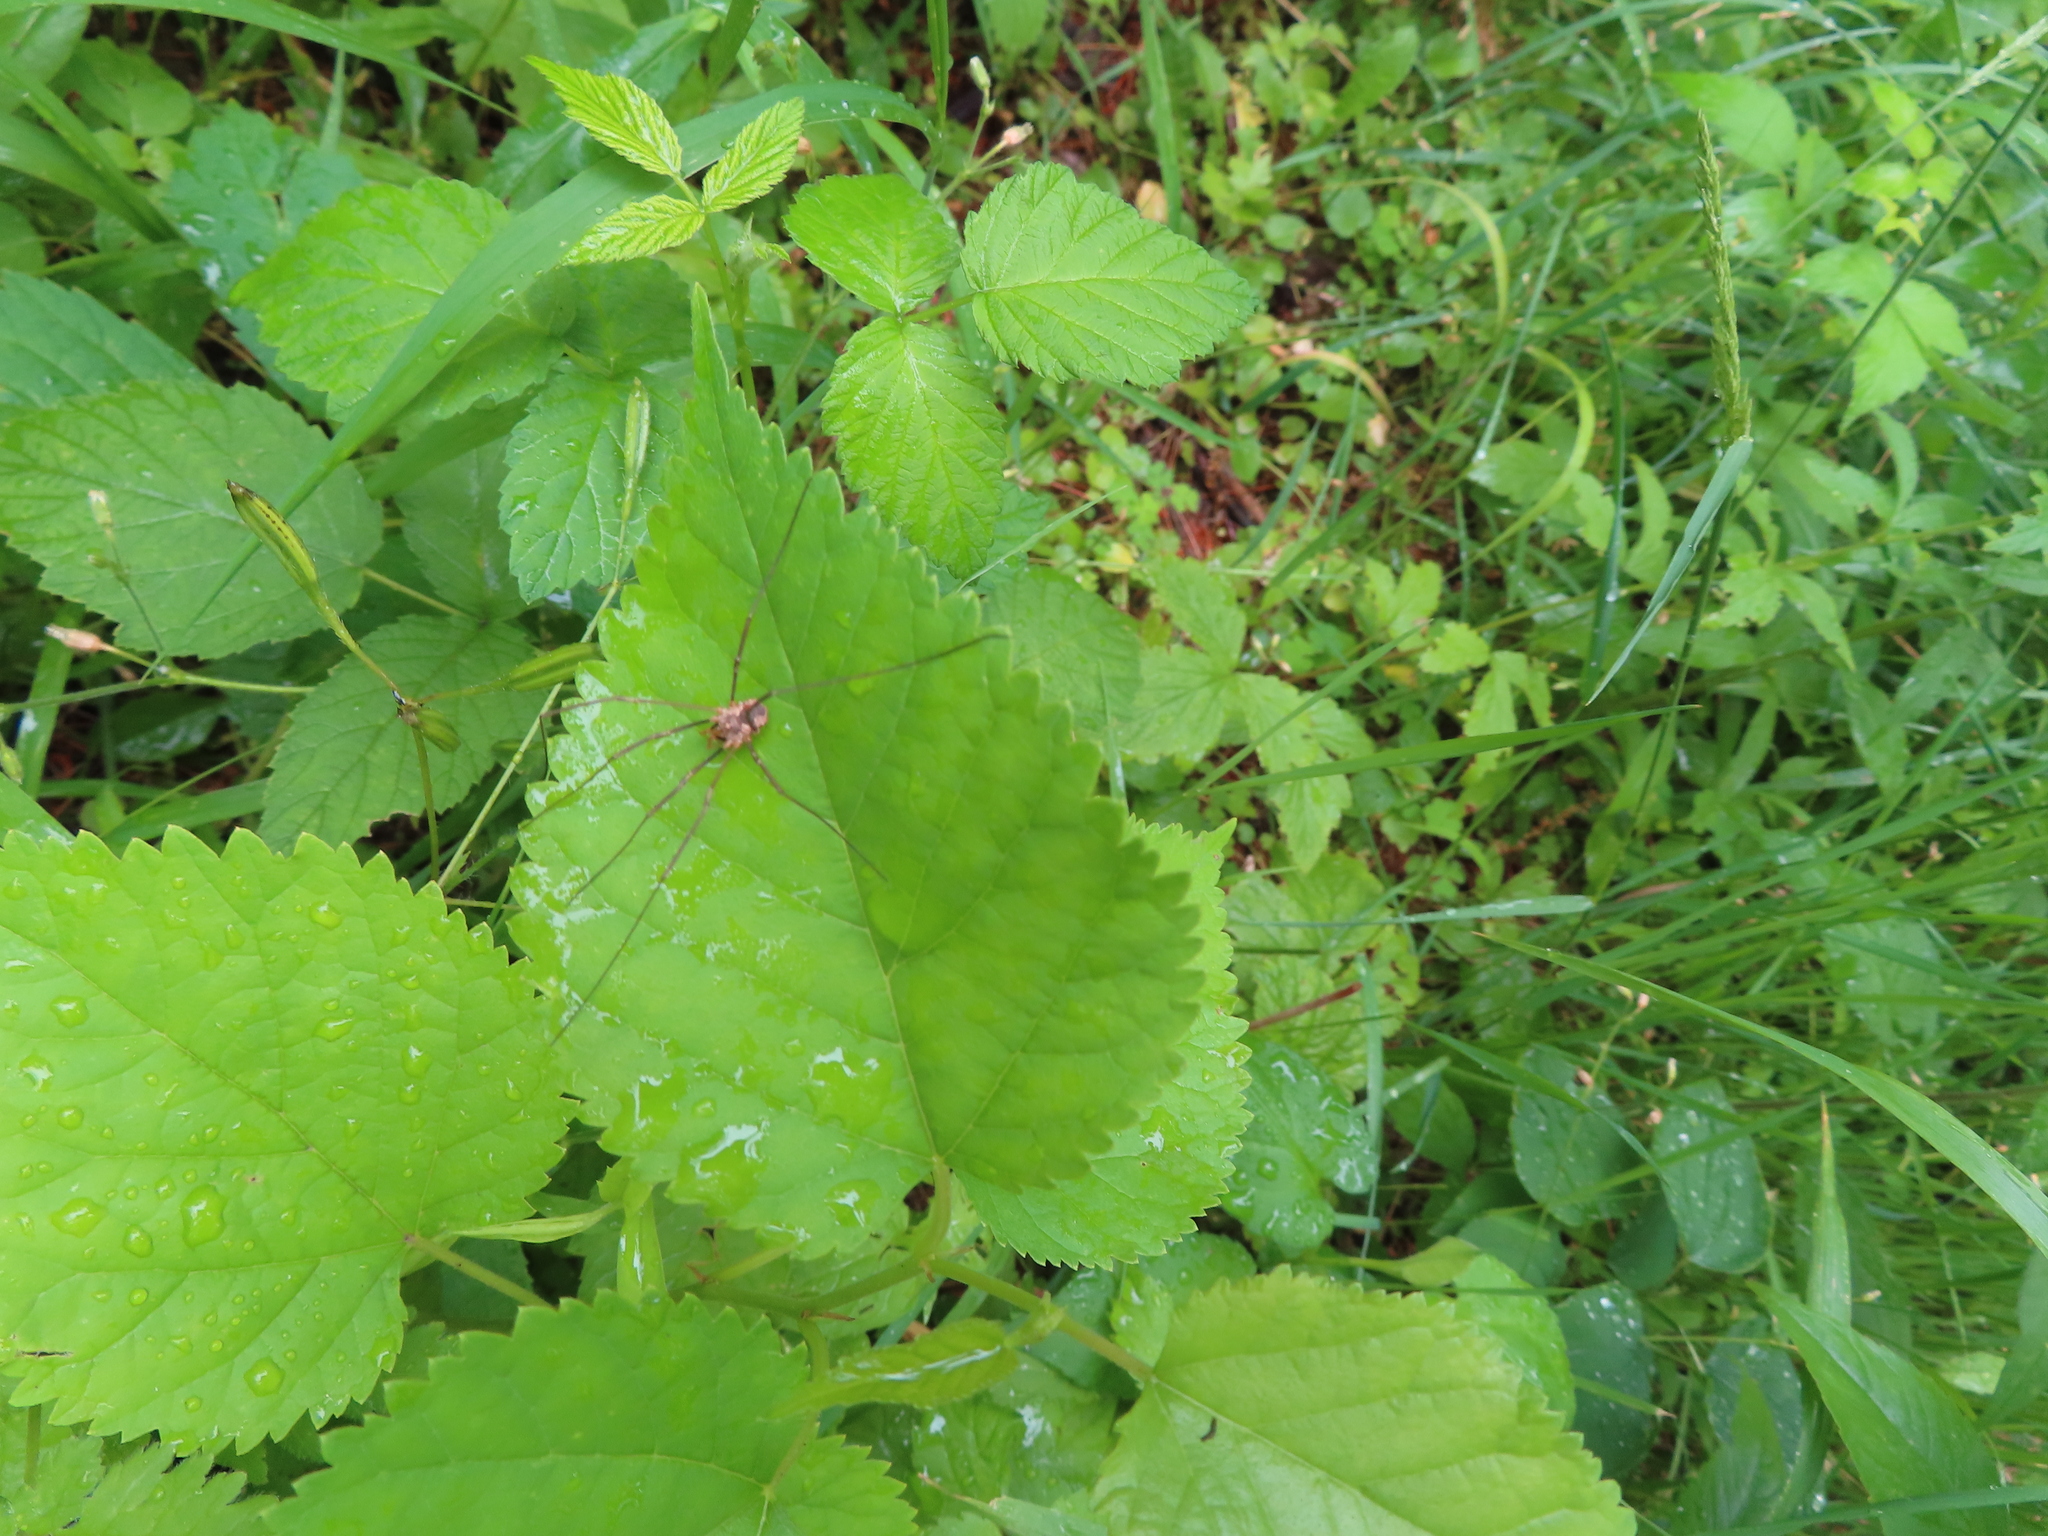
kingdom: Animalia
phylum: Arthropoda
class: Arachnida
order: Opiliones
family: Phalangiidae
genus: Phalangium
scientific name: Phalangium opilio
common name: Daddy longleg
